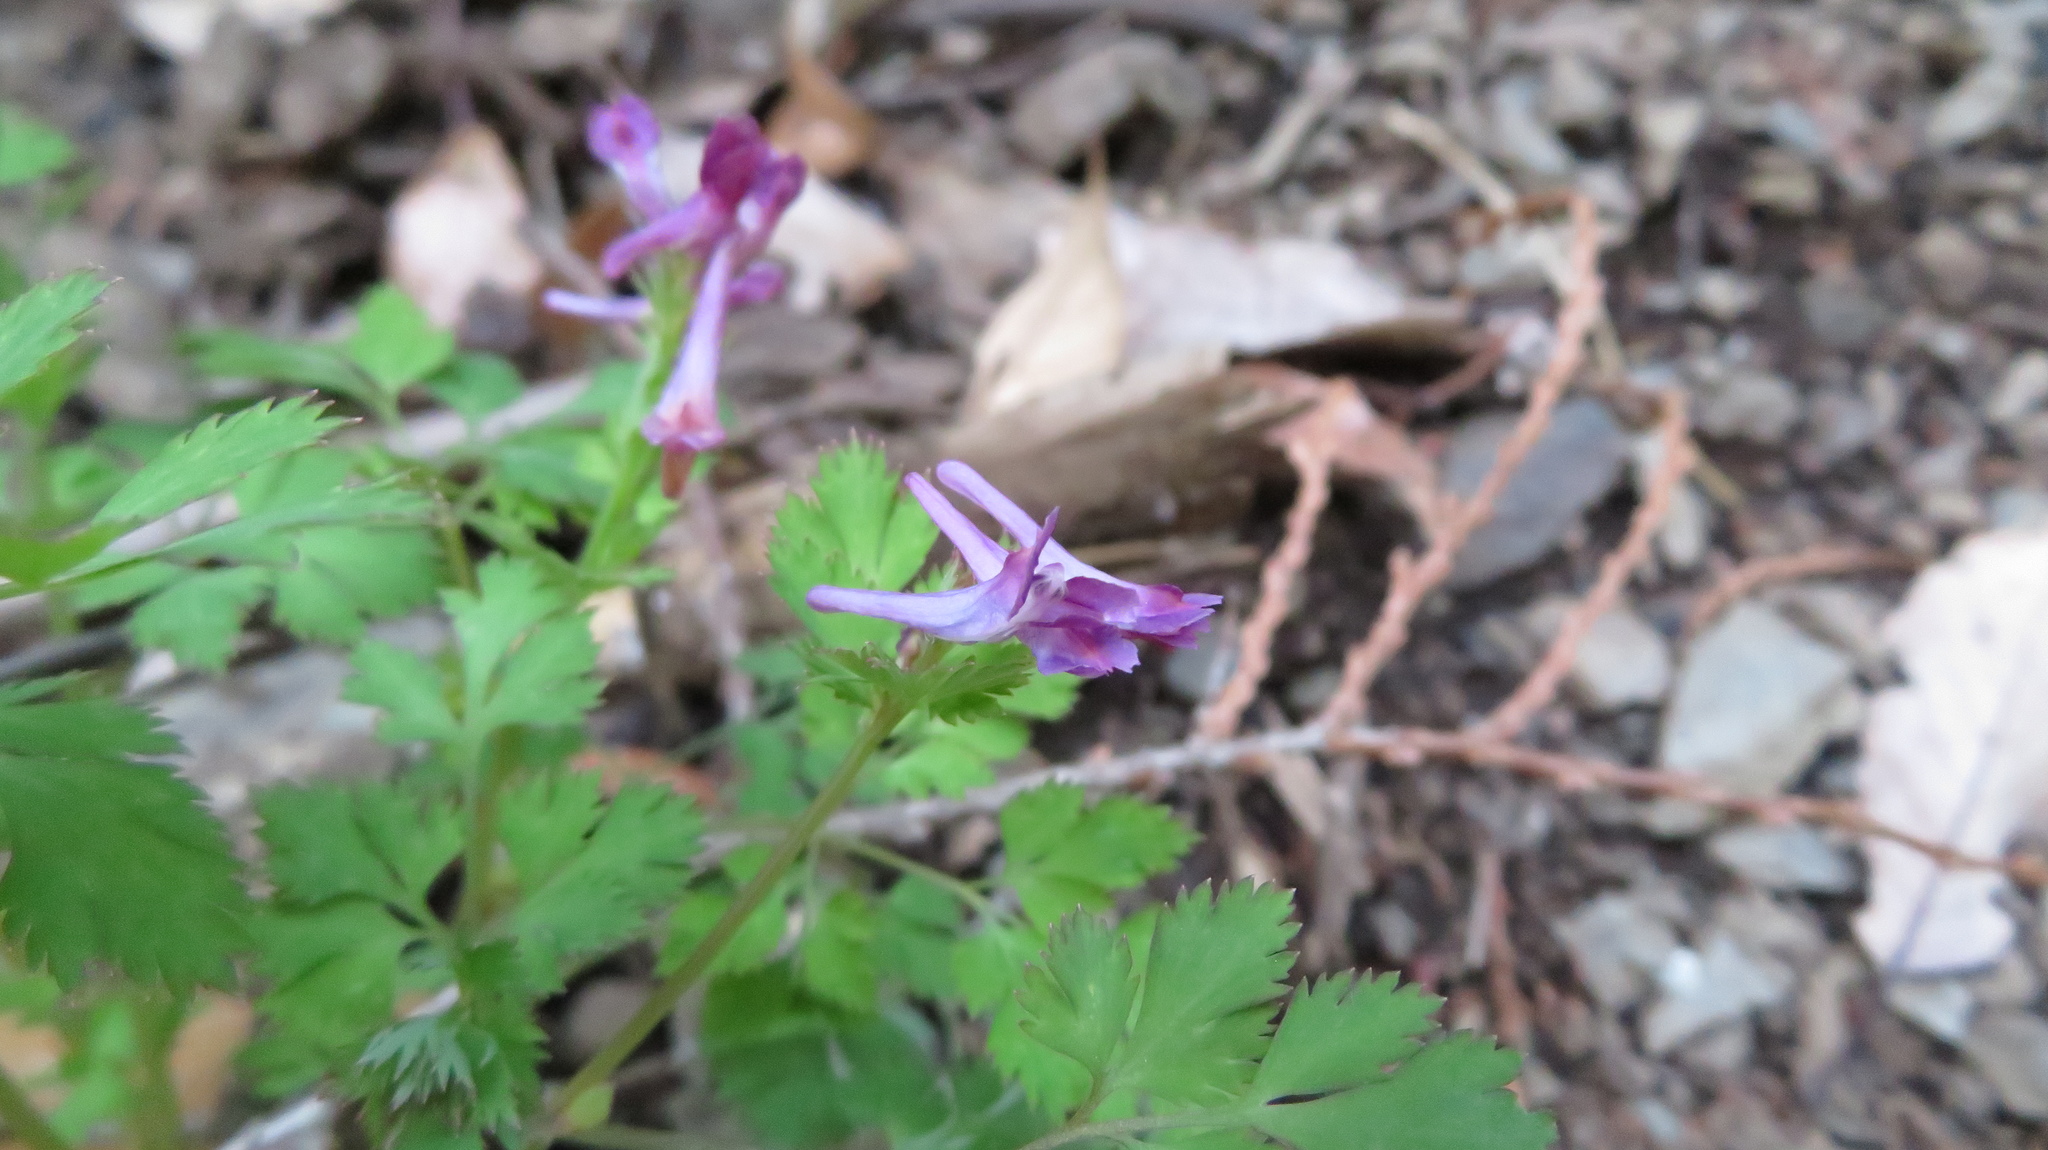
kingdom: Plantae
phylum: Tracheophyta
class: Magnoliopsida
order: Ranunculales
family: Papaveraceae
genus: Corydalis
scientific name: Corydalis incisa
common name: Incised fumewort
